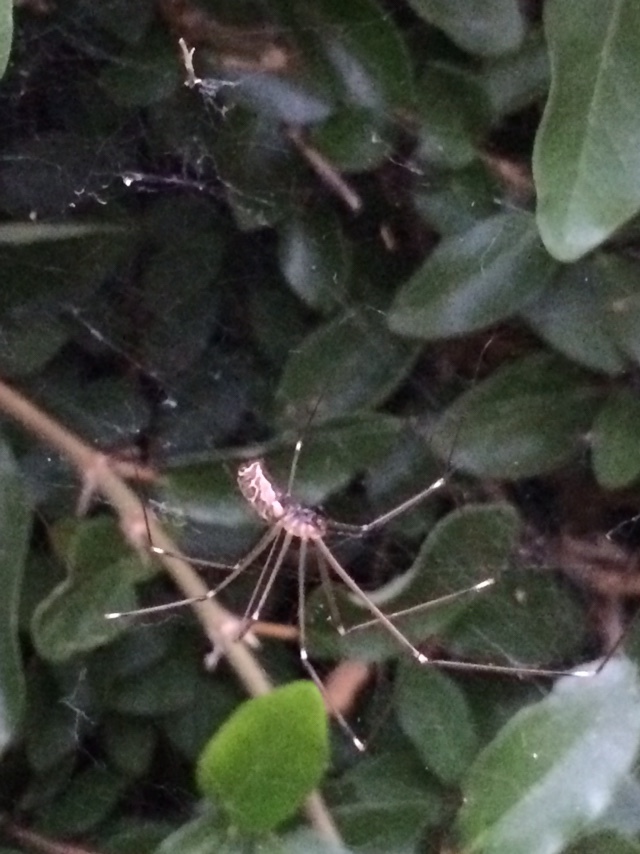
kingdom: Animalia
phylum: Arthropoda
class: Arachnida
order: Araneae
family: Pholcidae
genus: Holocnemus
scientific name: Holocnemus pluchei
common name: Marbled cellar spider
